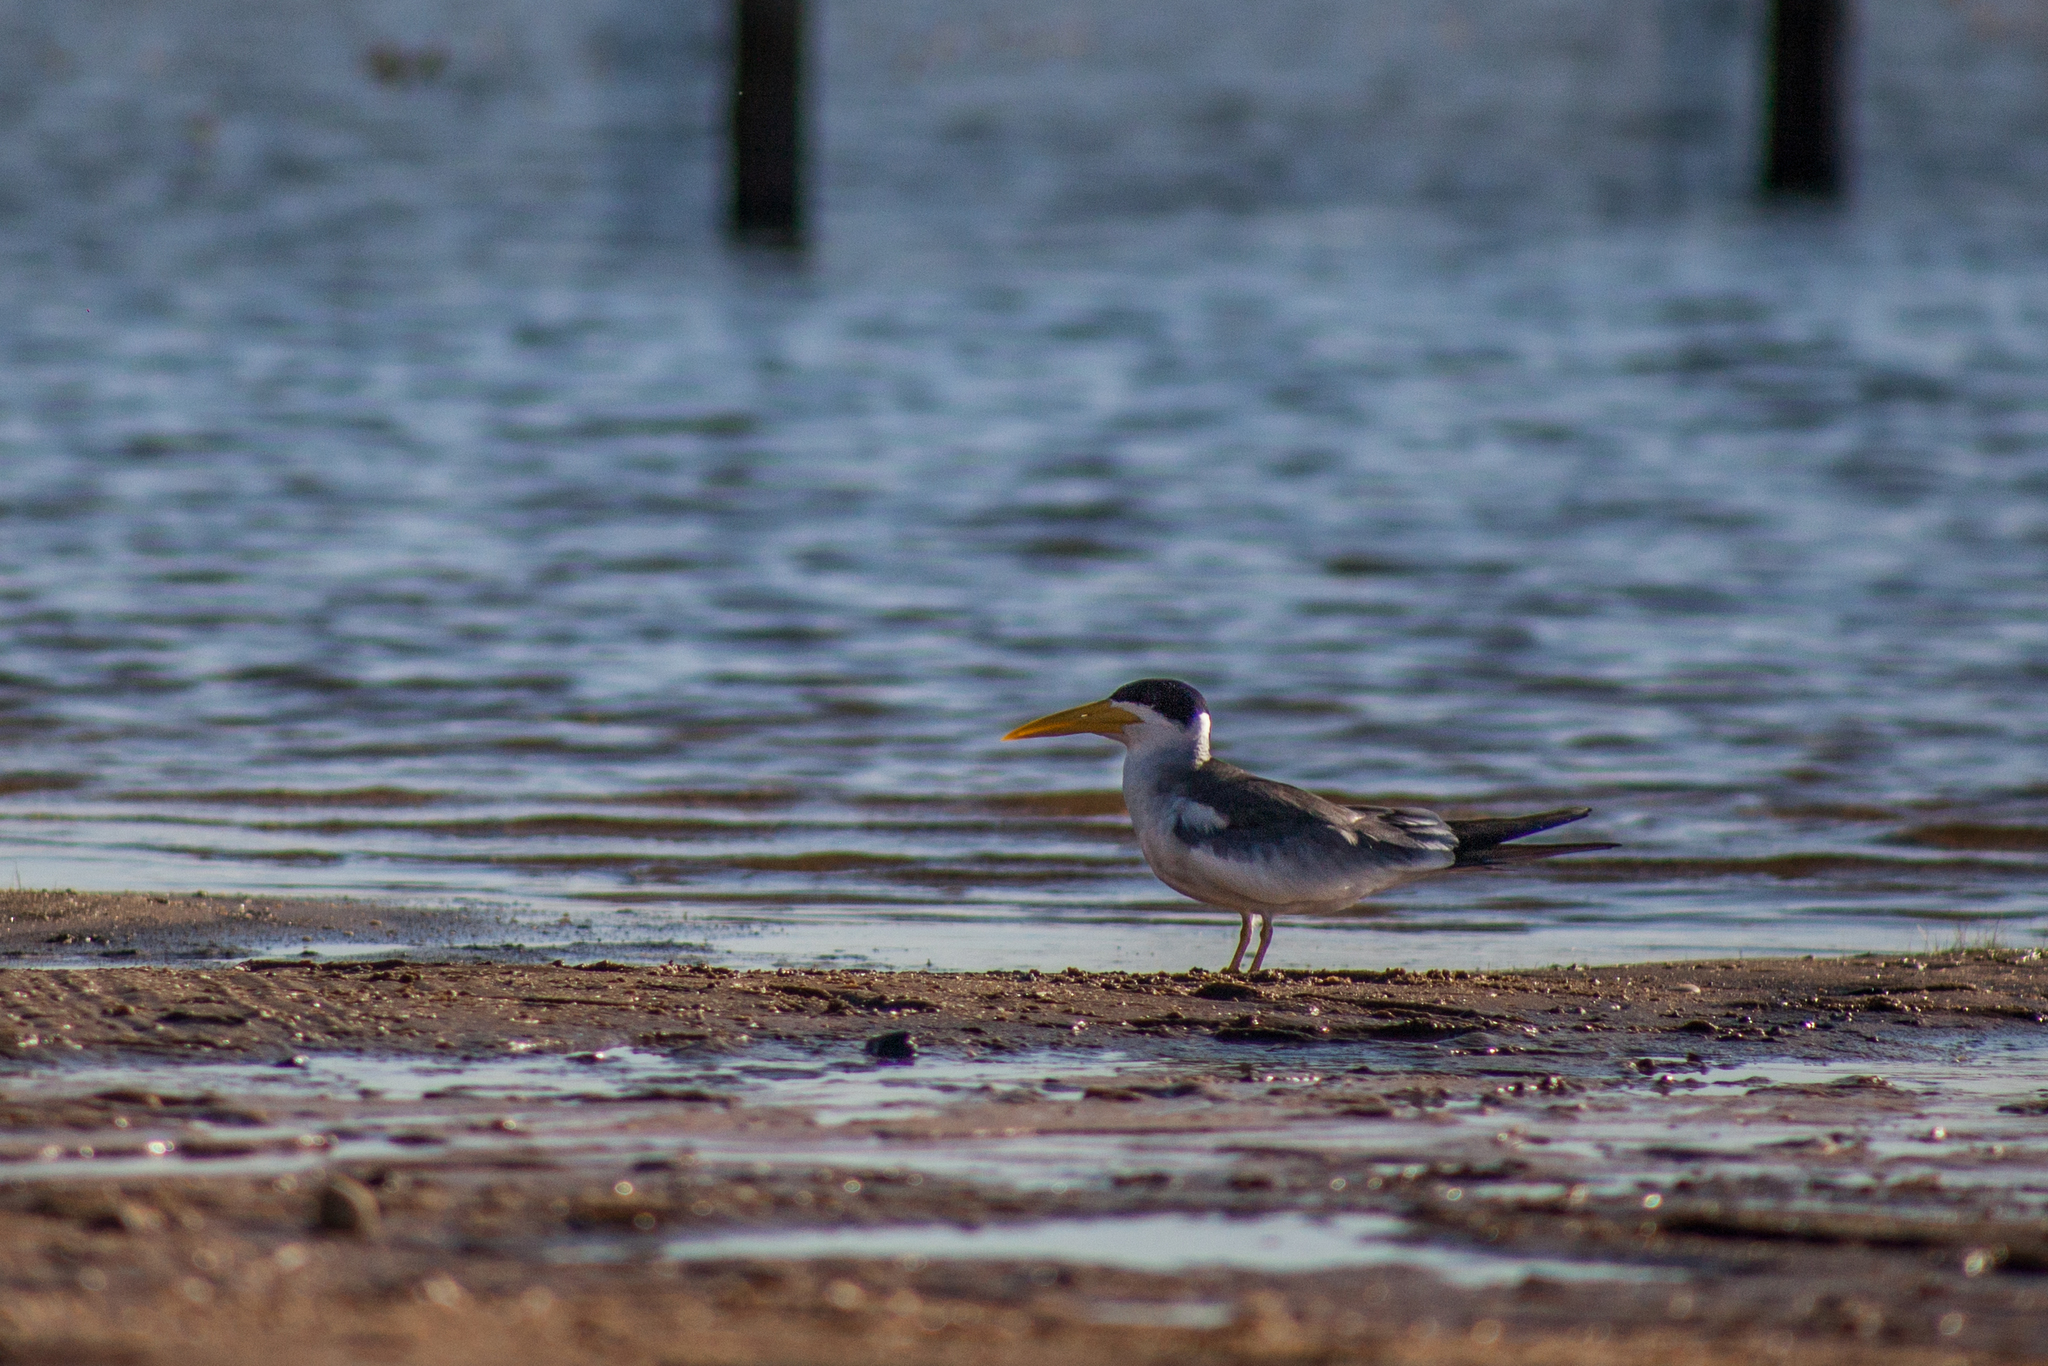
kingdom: Animalia
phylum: Chordata
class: Aves
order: Charadriiformes
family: Laridae
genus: Phaetusa
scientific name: Phaetusa simplex
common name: Large-billed tern
